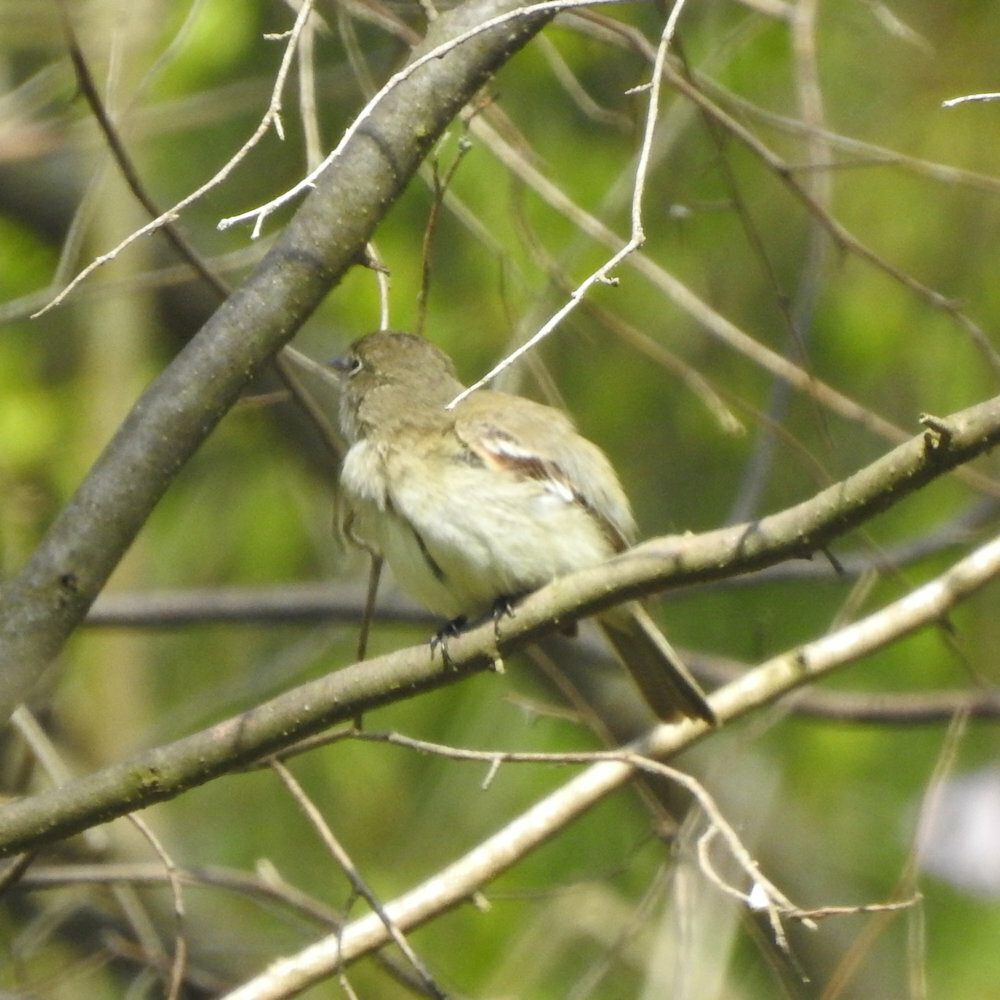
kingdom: Animalia
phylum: Chordata
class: Aves
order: Passeriformes
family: Tyrannidae
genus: Empidonax
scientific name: Empidonax minimus
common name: Least flycatcher
